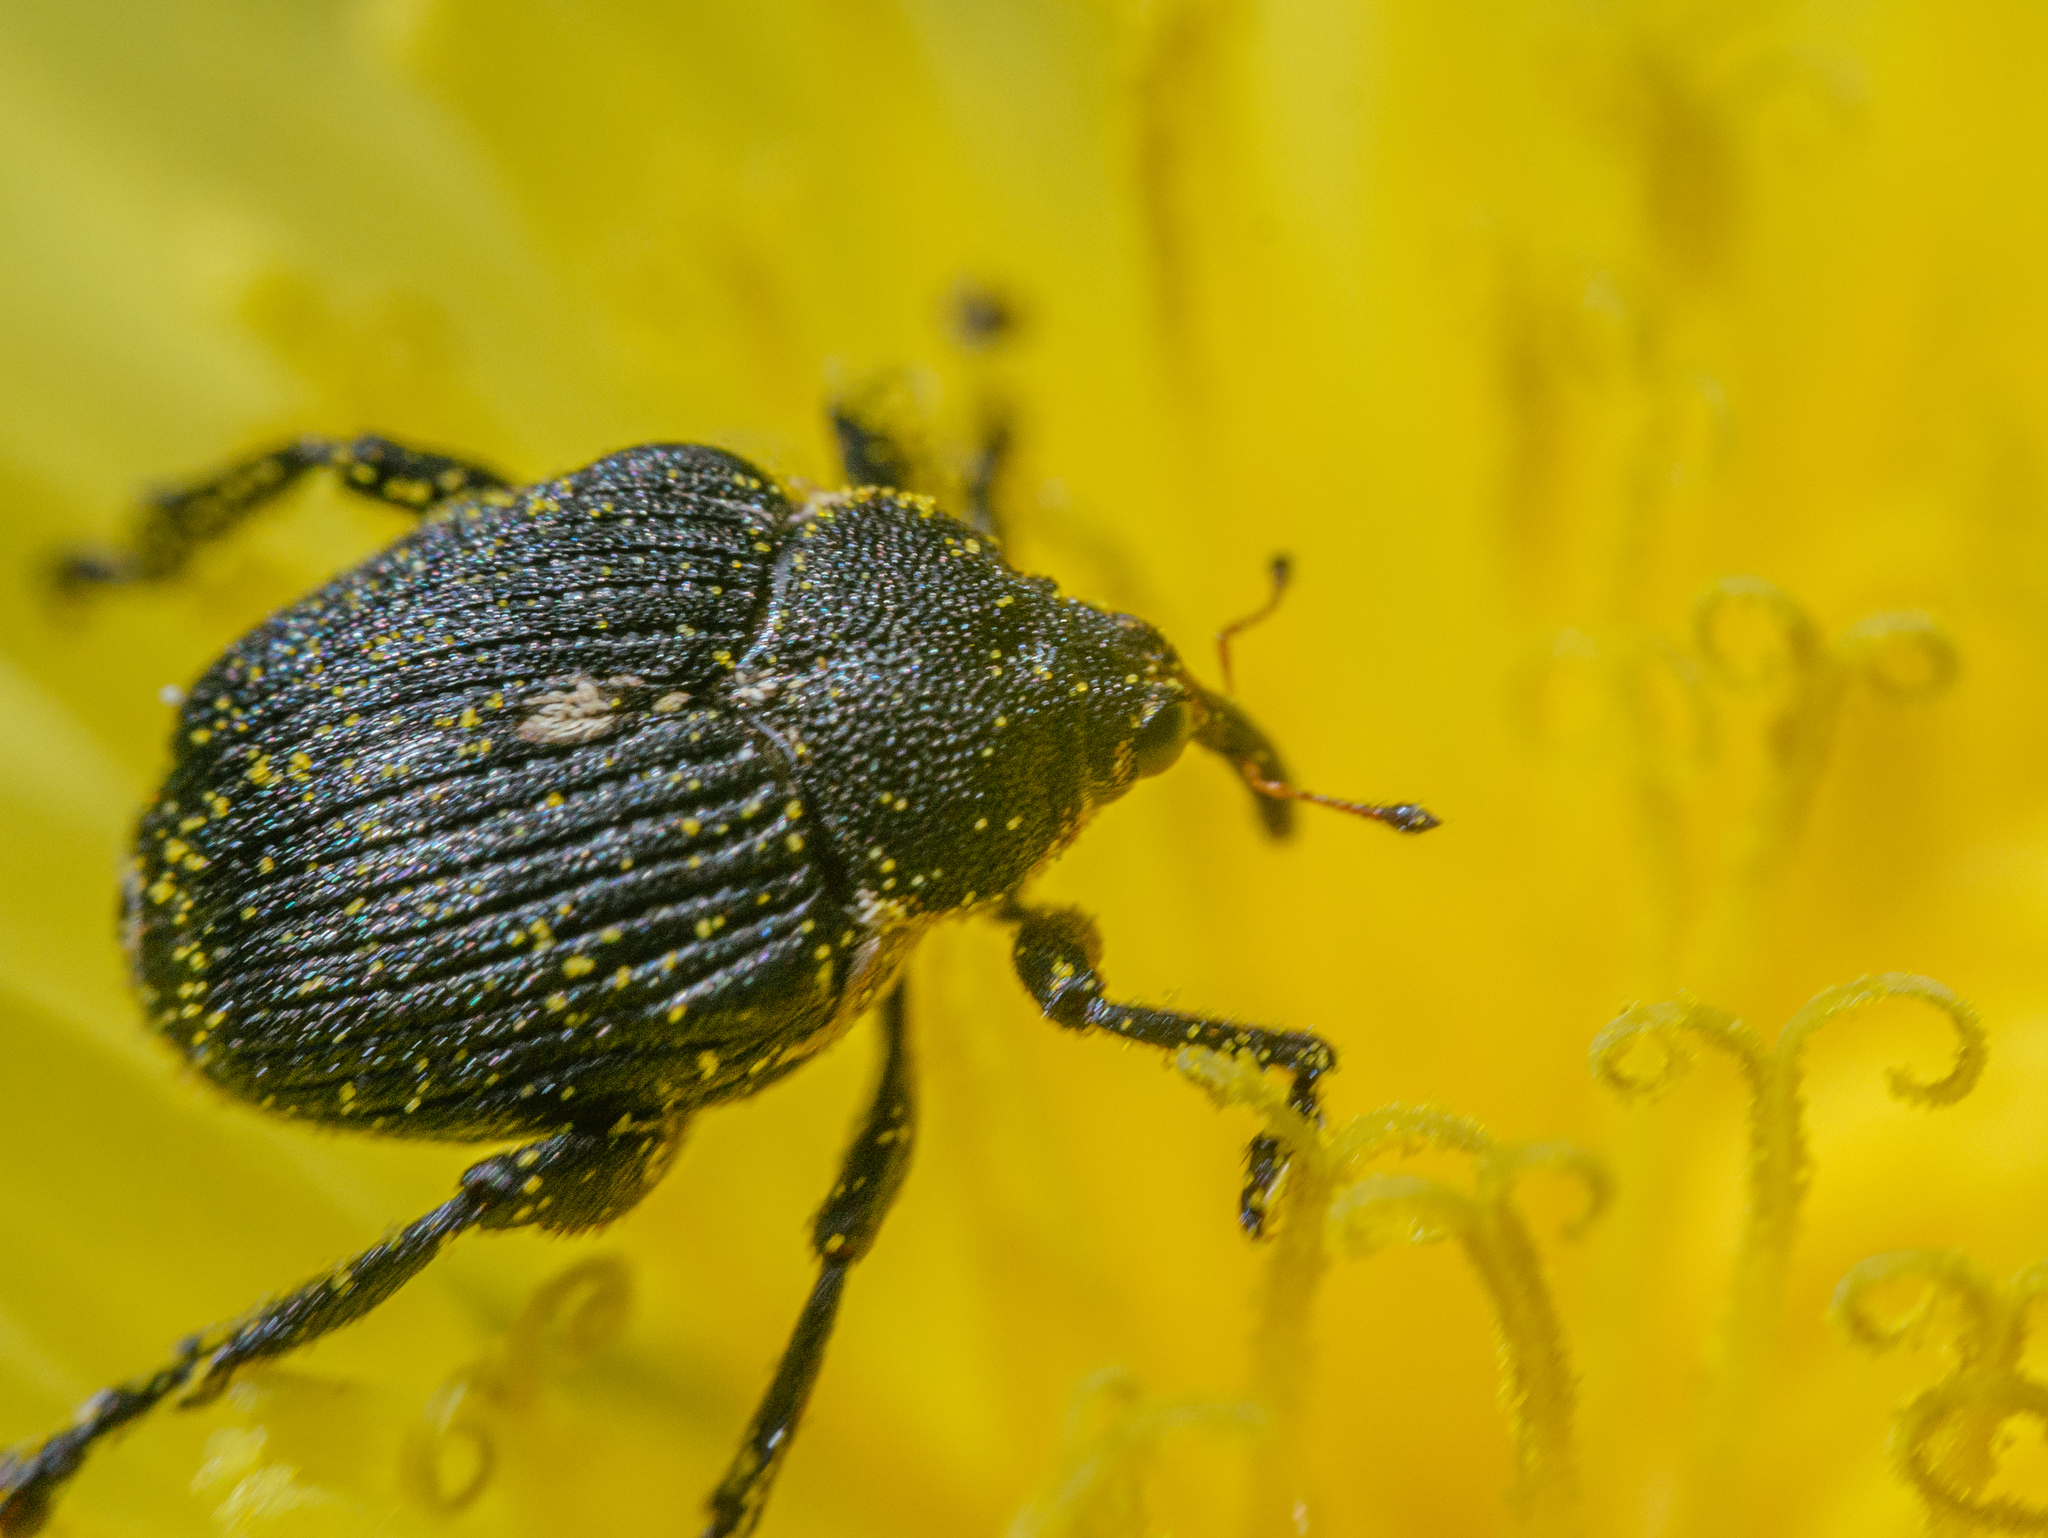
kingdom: Animalia
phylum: Arthropoda
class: Insecta
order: Coleoptera
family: Curculionidae
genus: Mononychus
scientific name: Mononychus punctumalbum
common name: Iris weevil
